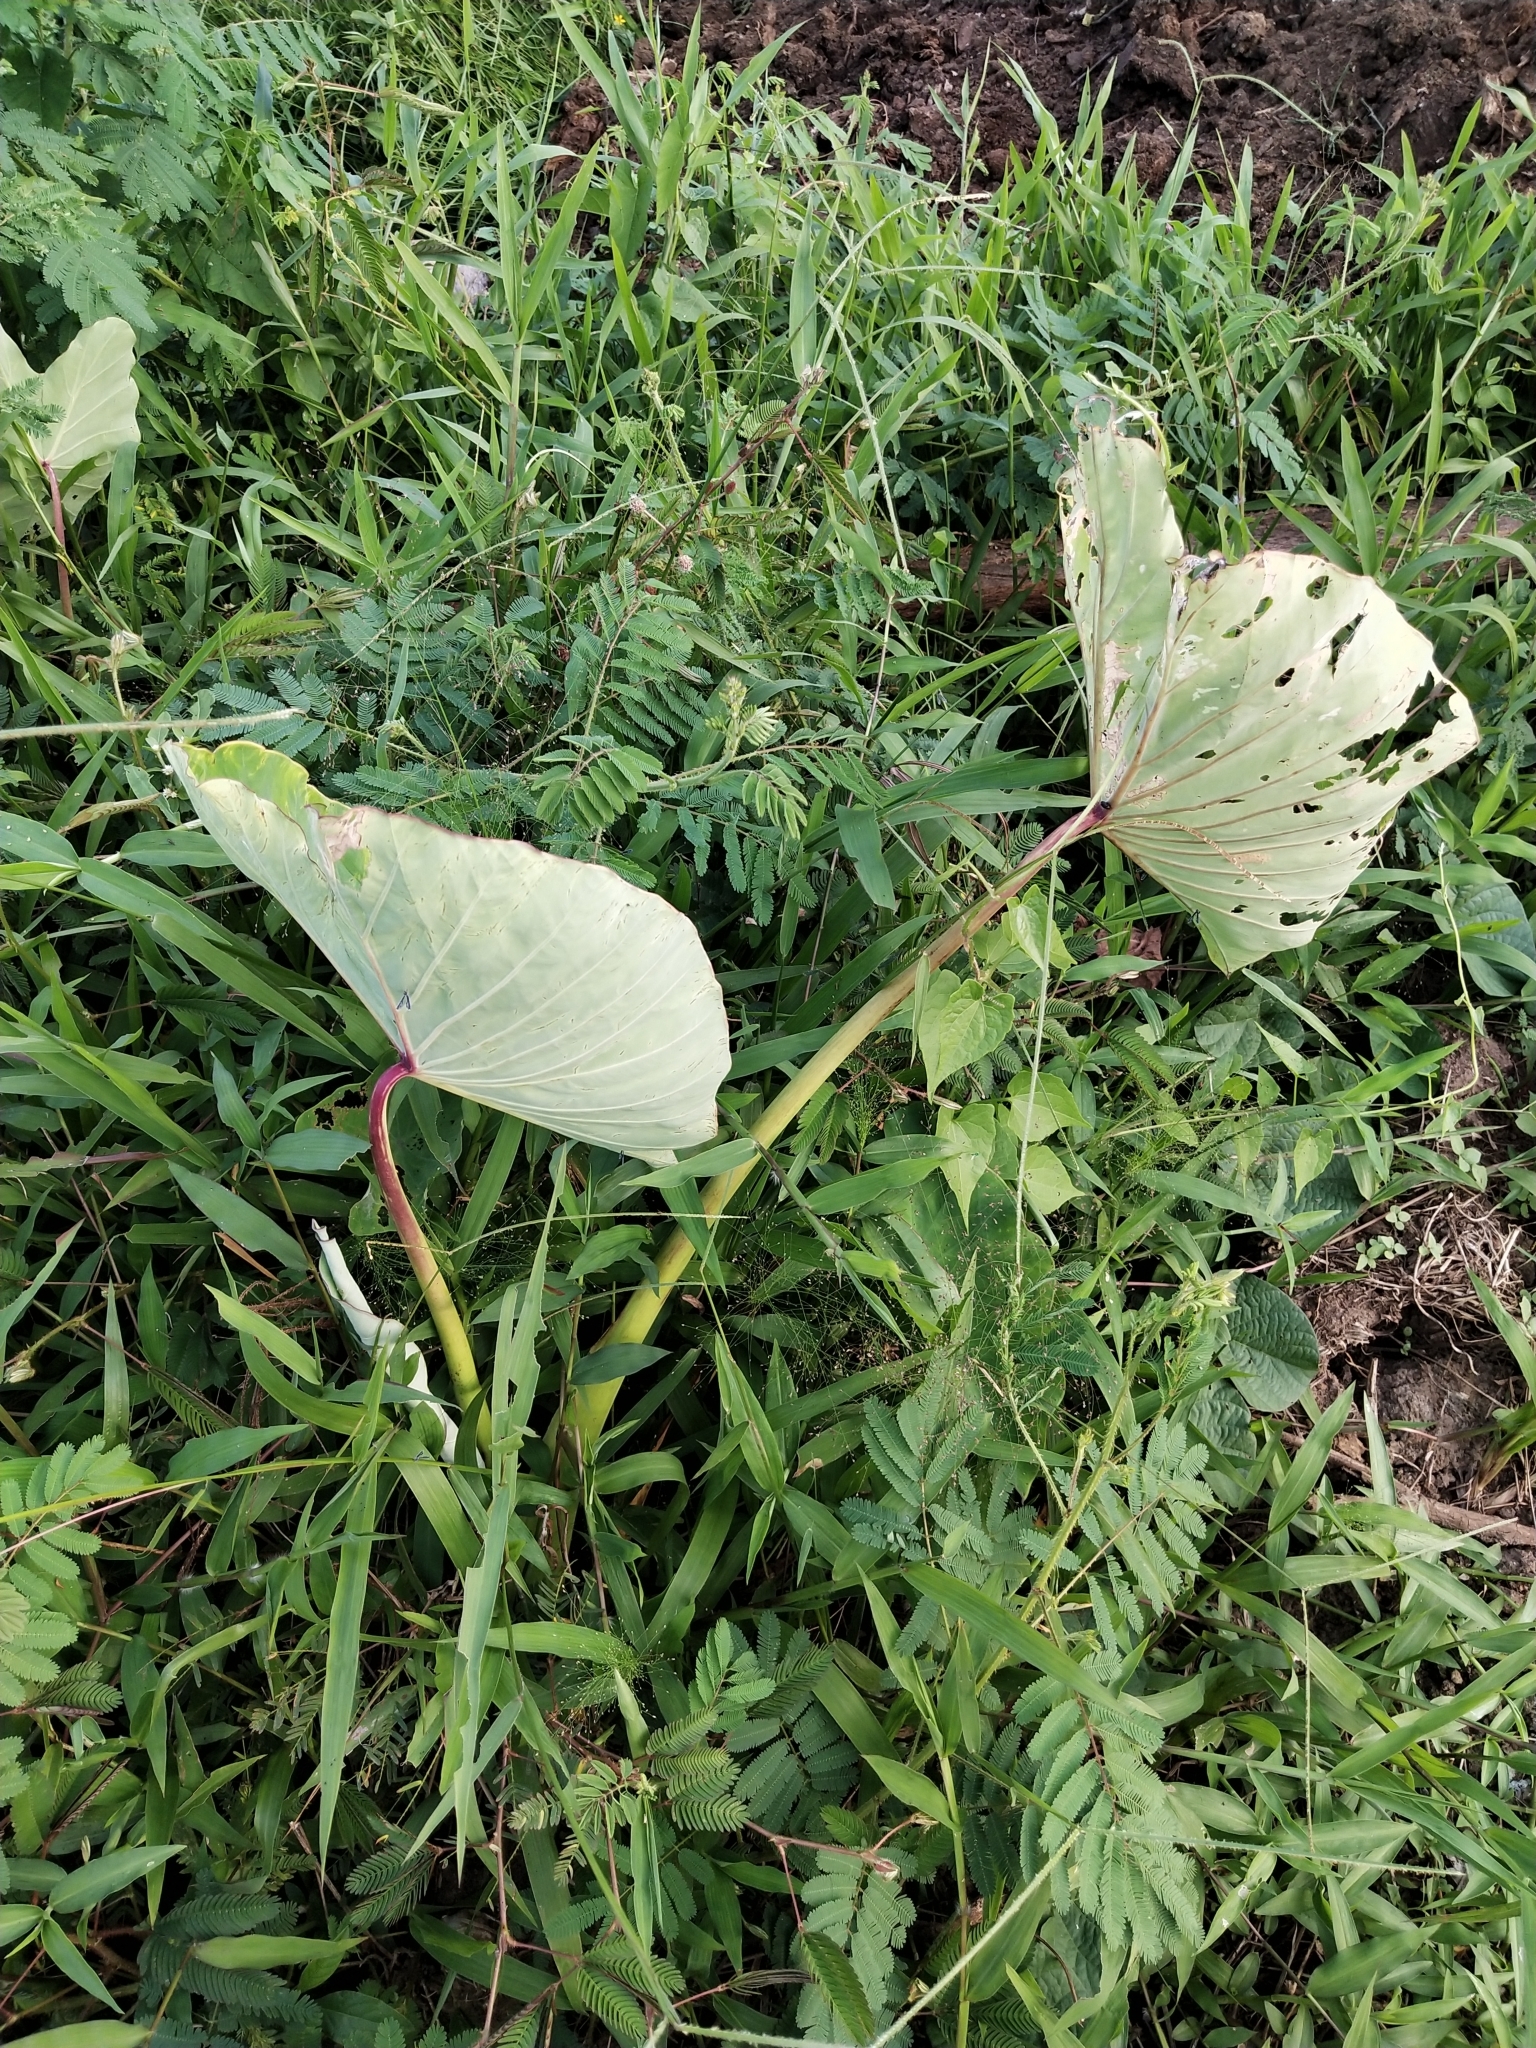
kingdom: Plantae
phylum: Tracheophyta
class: Liliopsida
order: Alismatales
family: Araceae
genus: Colocasia
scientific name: Colocasia esculenta
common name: Taro
